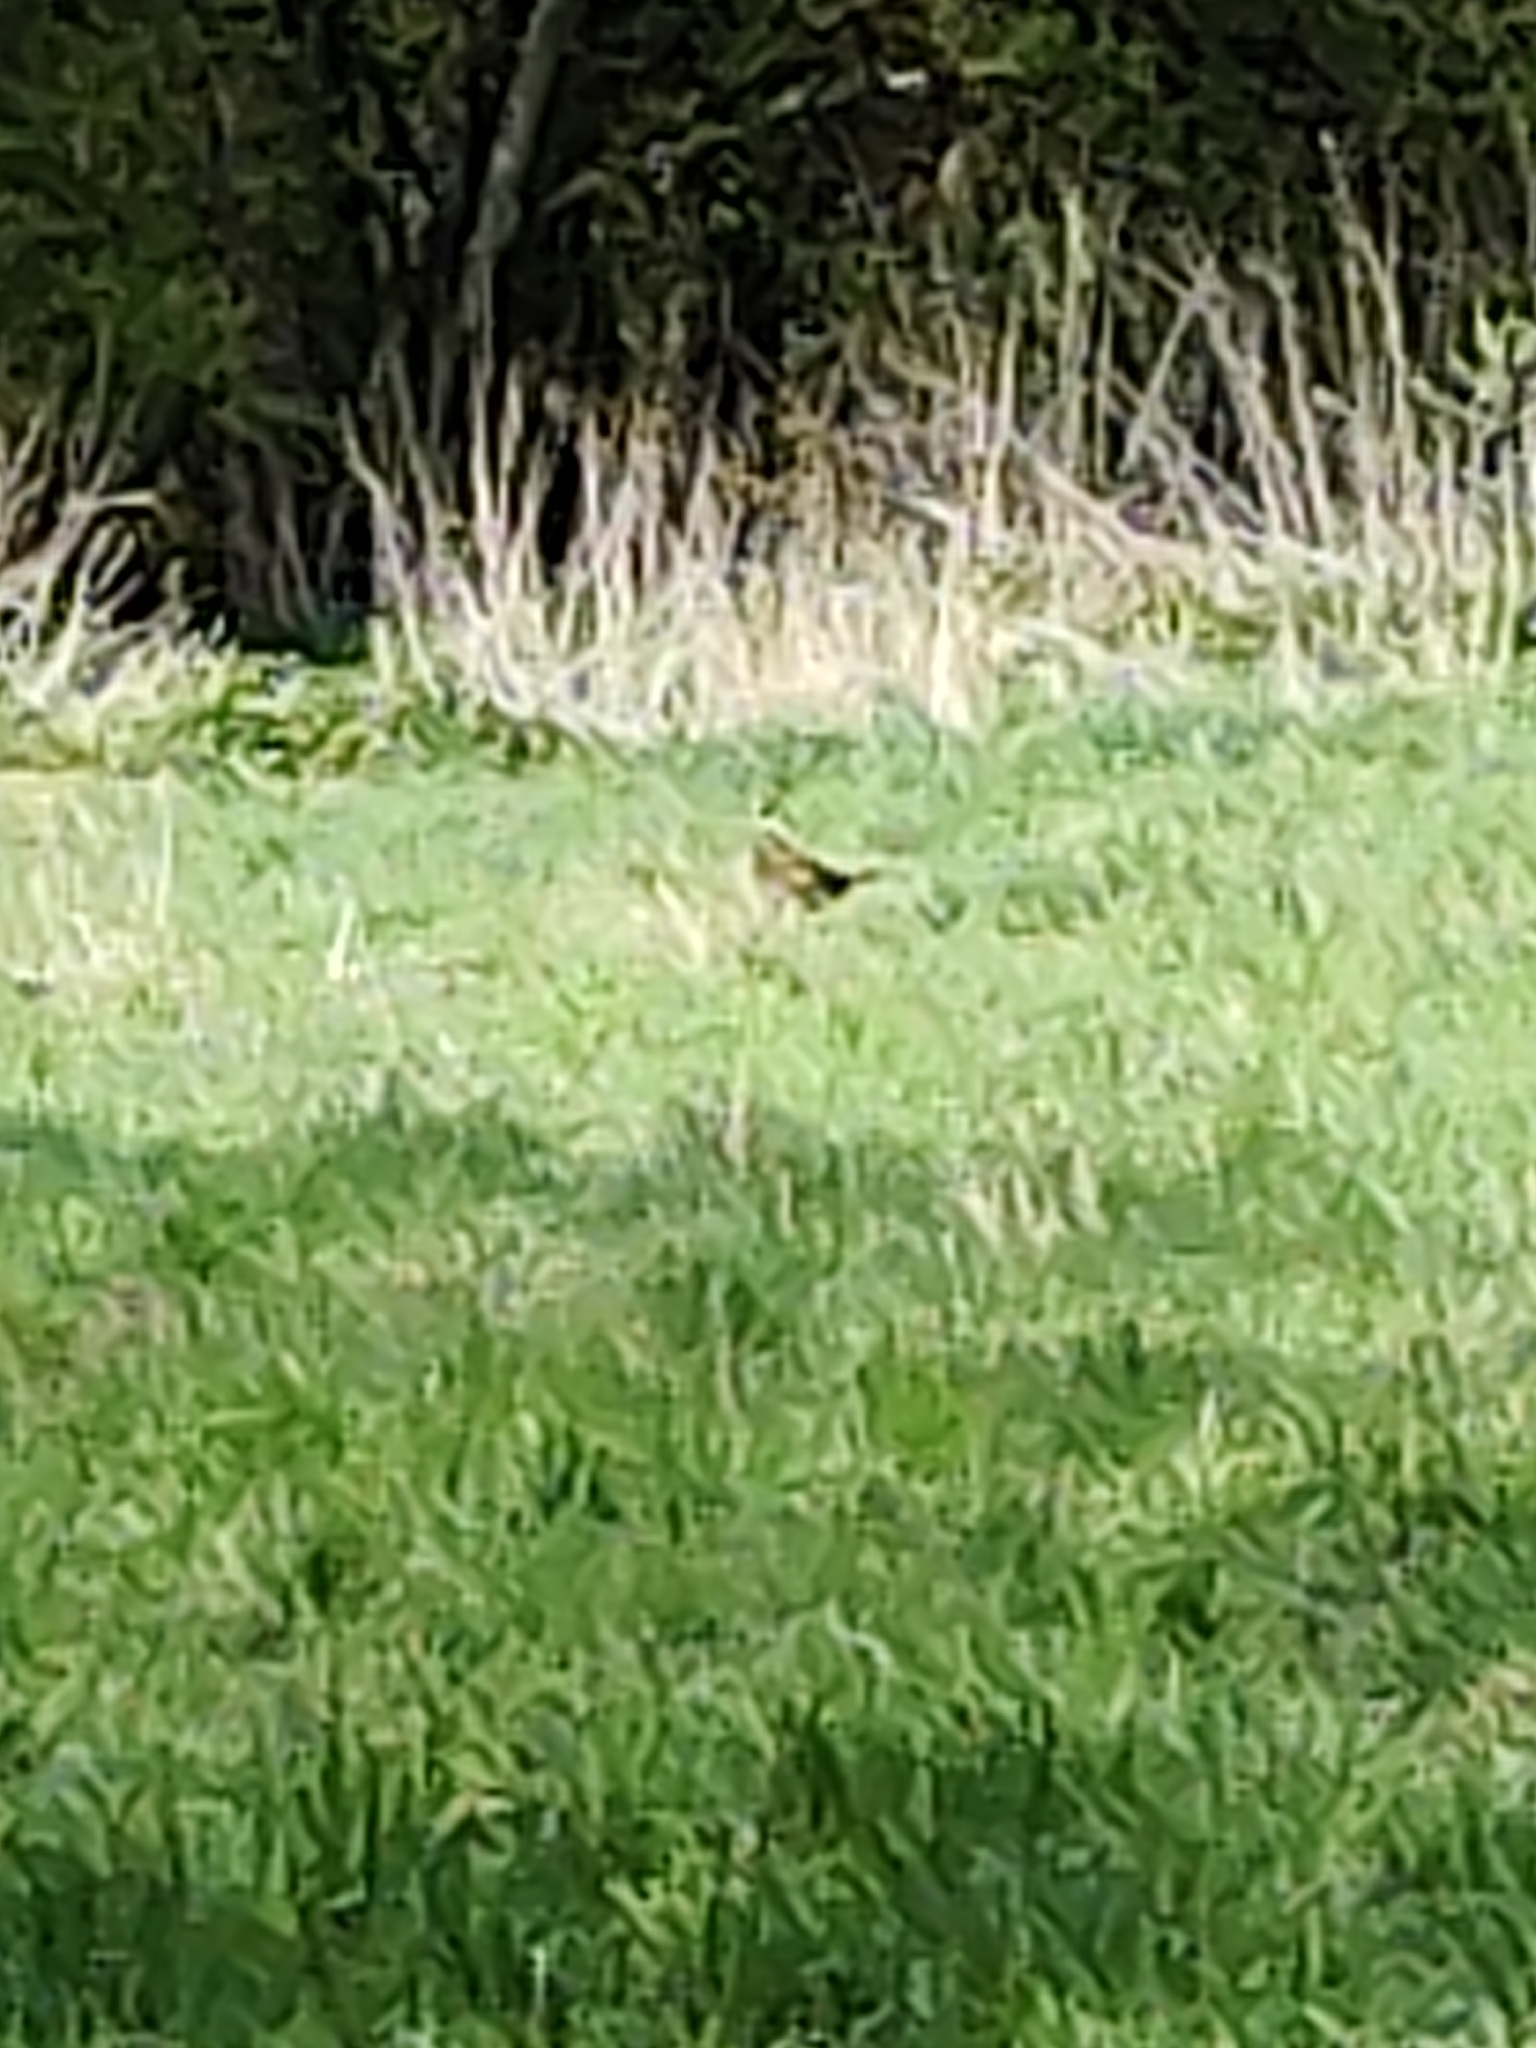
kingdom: Animalia
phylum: Chordata
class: Aves
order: Galliformes
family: Phasianidae
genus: Phasianus
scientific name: Phasianus colchicus
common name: Common pheasant
